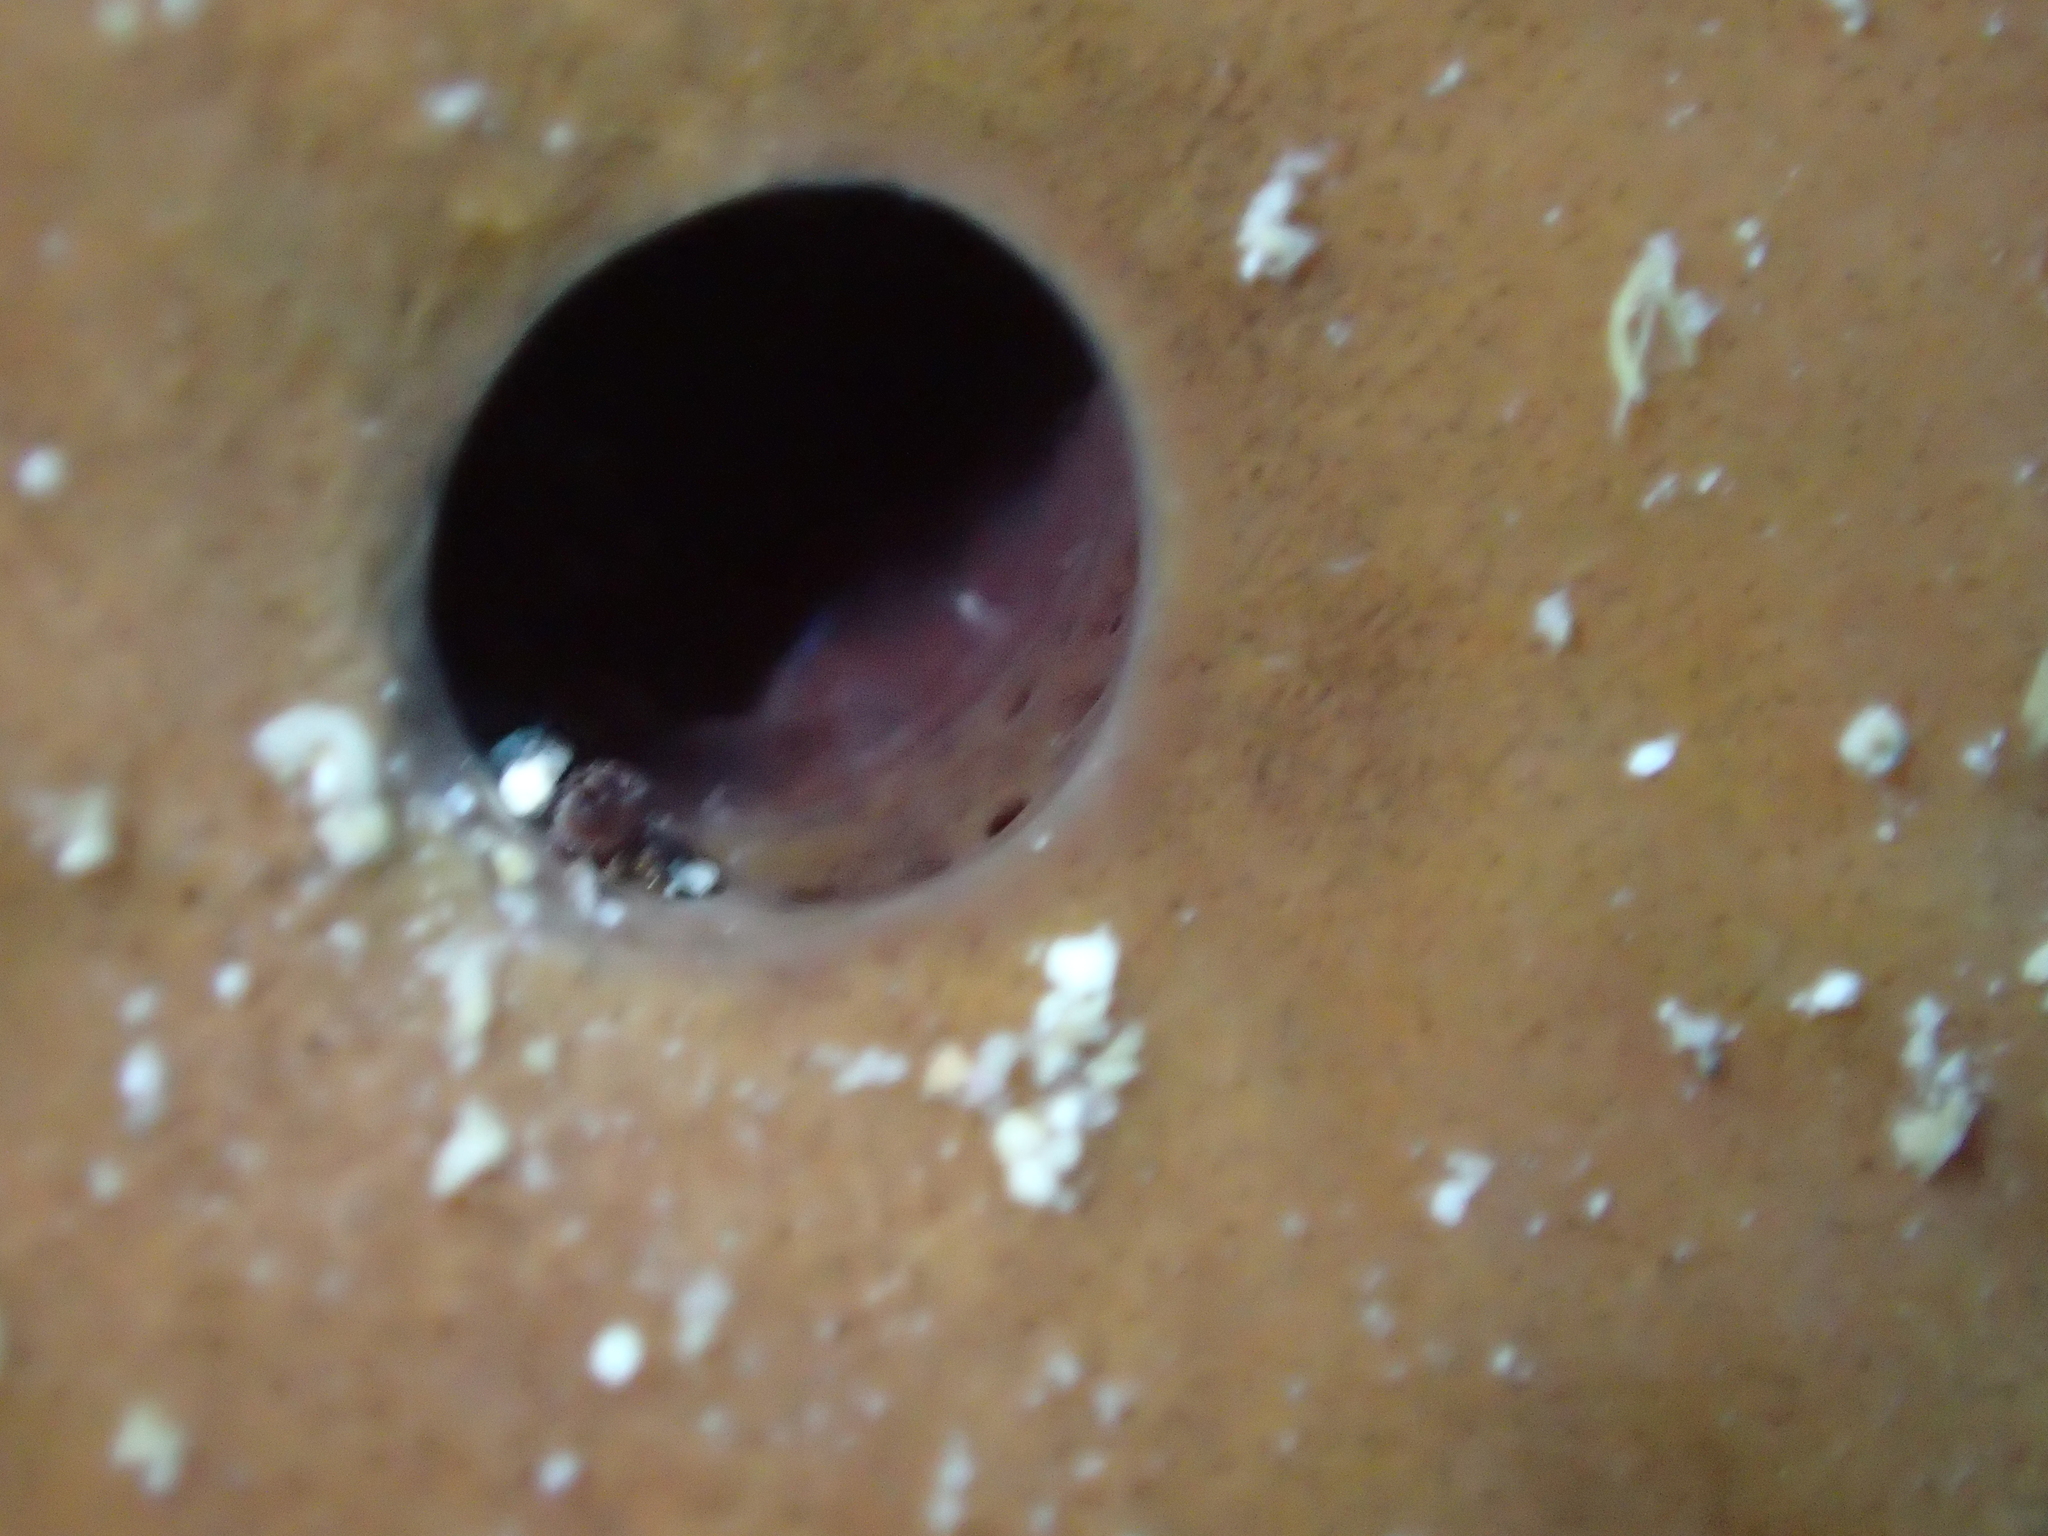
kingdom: Animalia
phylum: Porifera
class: Demospongiae
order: Haplosclerida
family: Petrosiidae
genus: Petrosia
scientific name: Petrosia ficiformis
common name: Stony sponge
